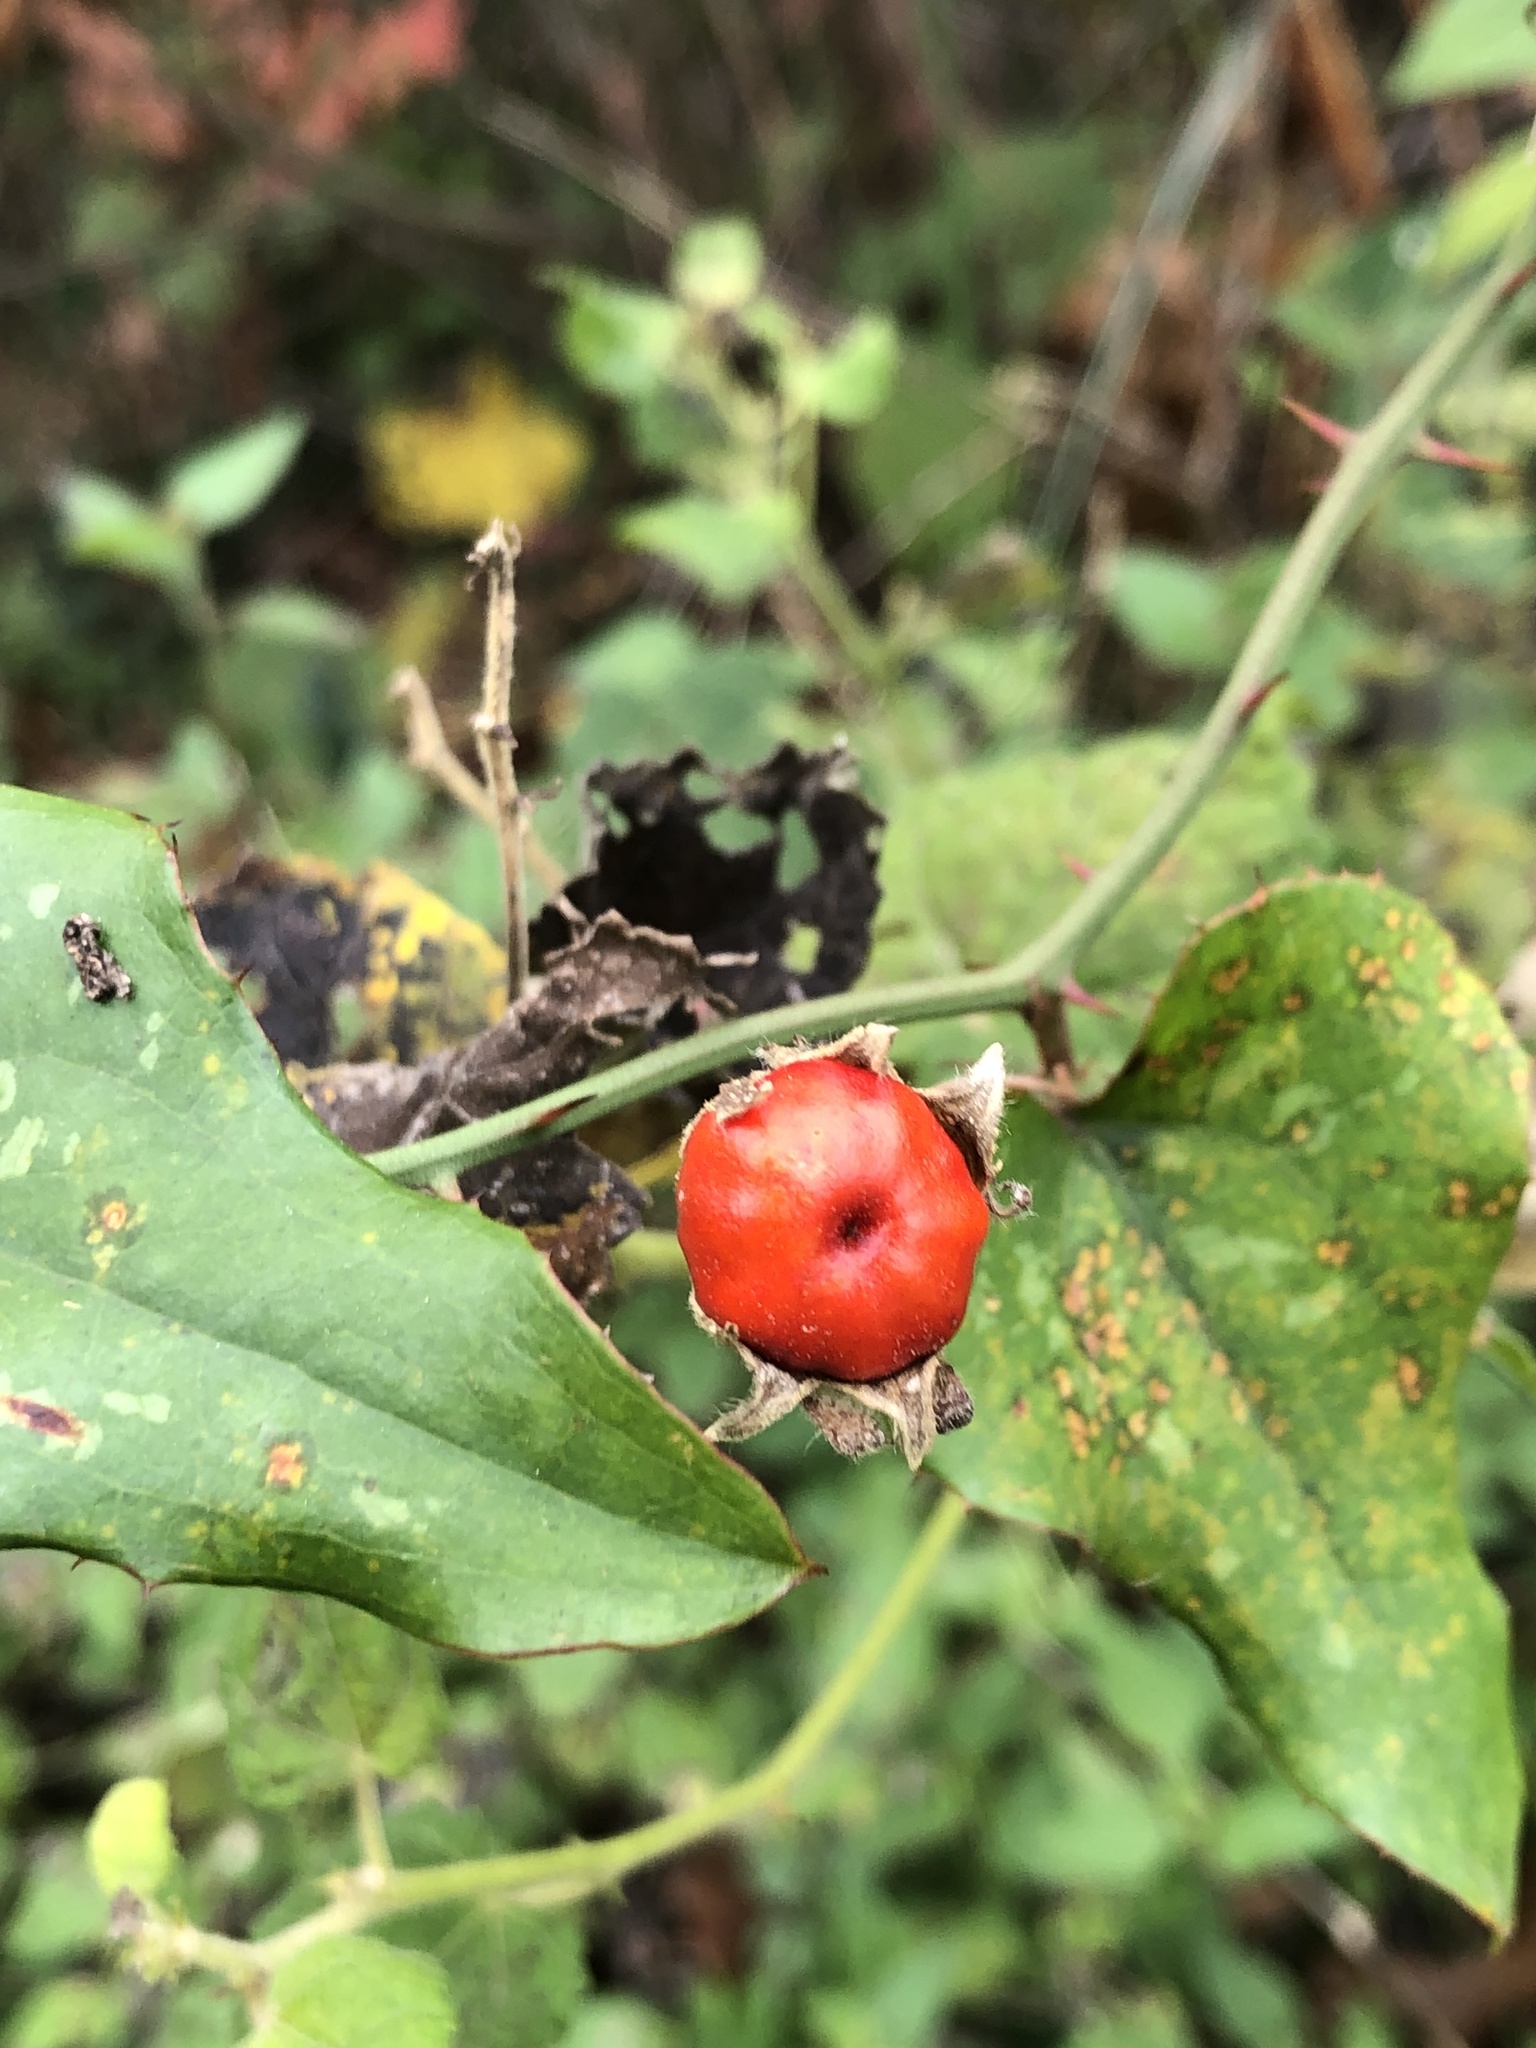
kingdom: Plantae
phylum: Tracheophyta
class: Magnoliopsida
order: Malvales
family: Malvaceae
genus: Malvaviscus
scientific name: Malvaviscus arboreus
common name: Wax mallow
